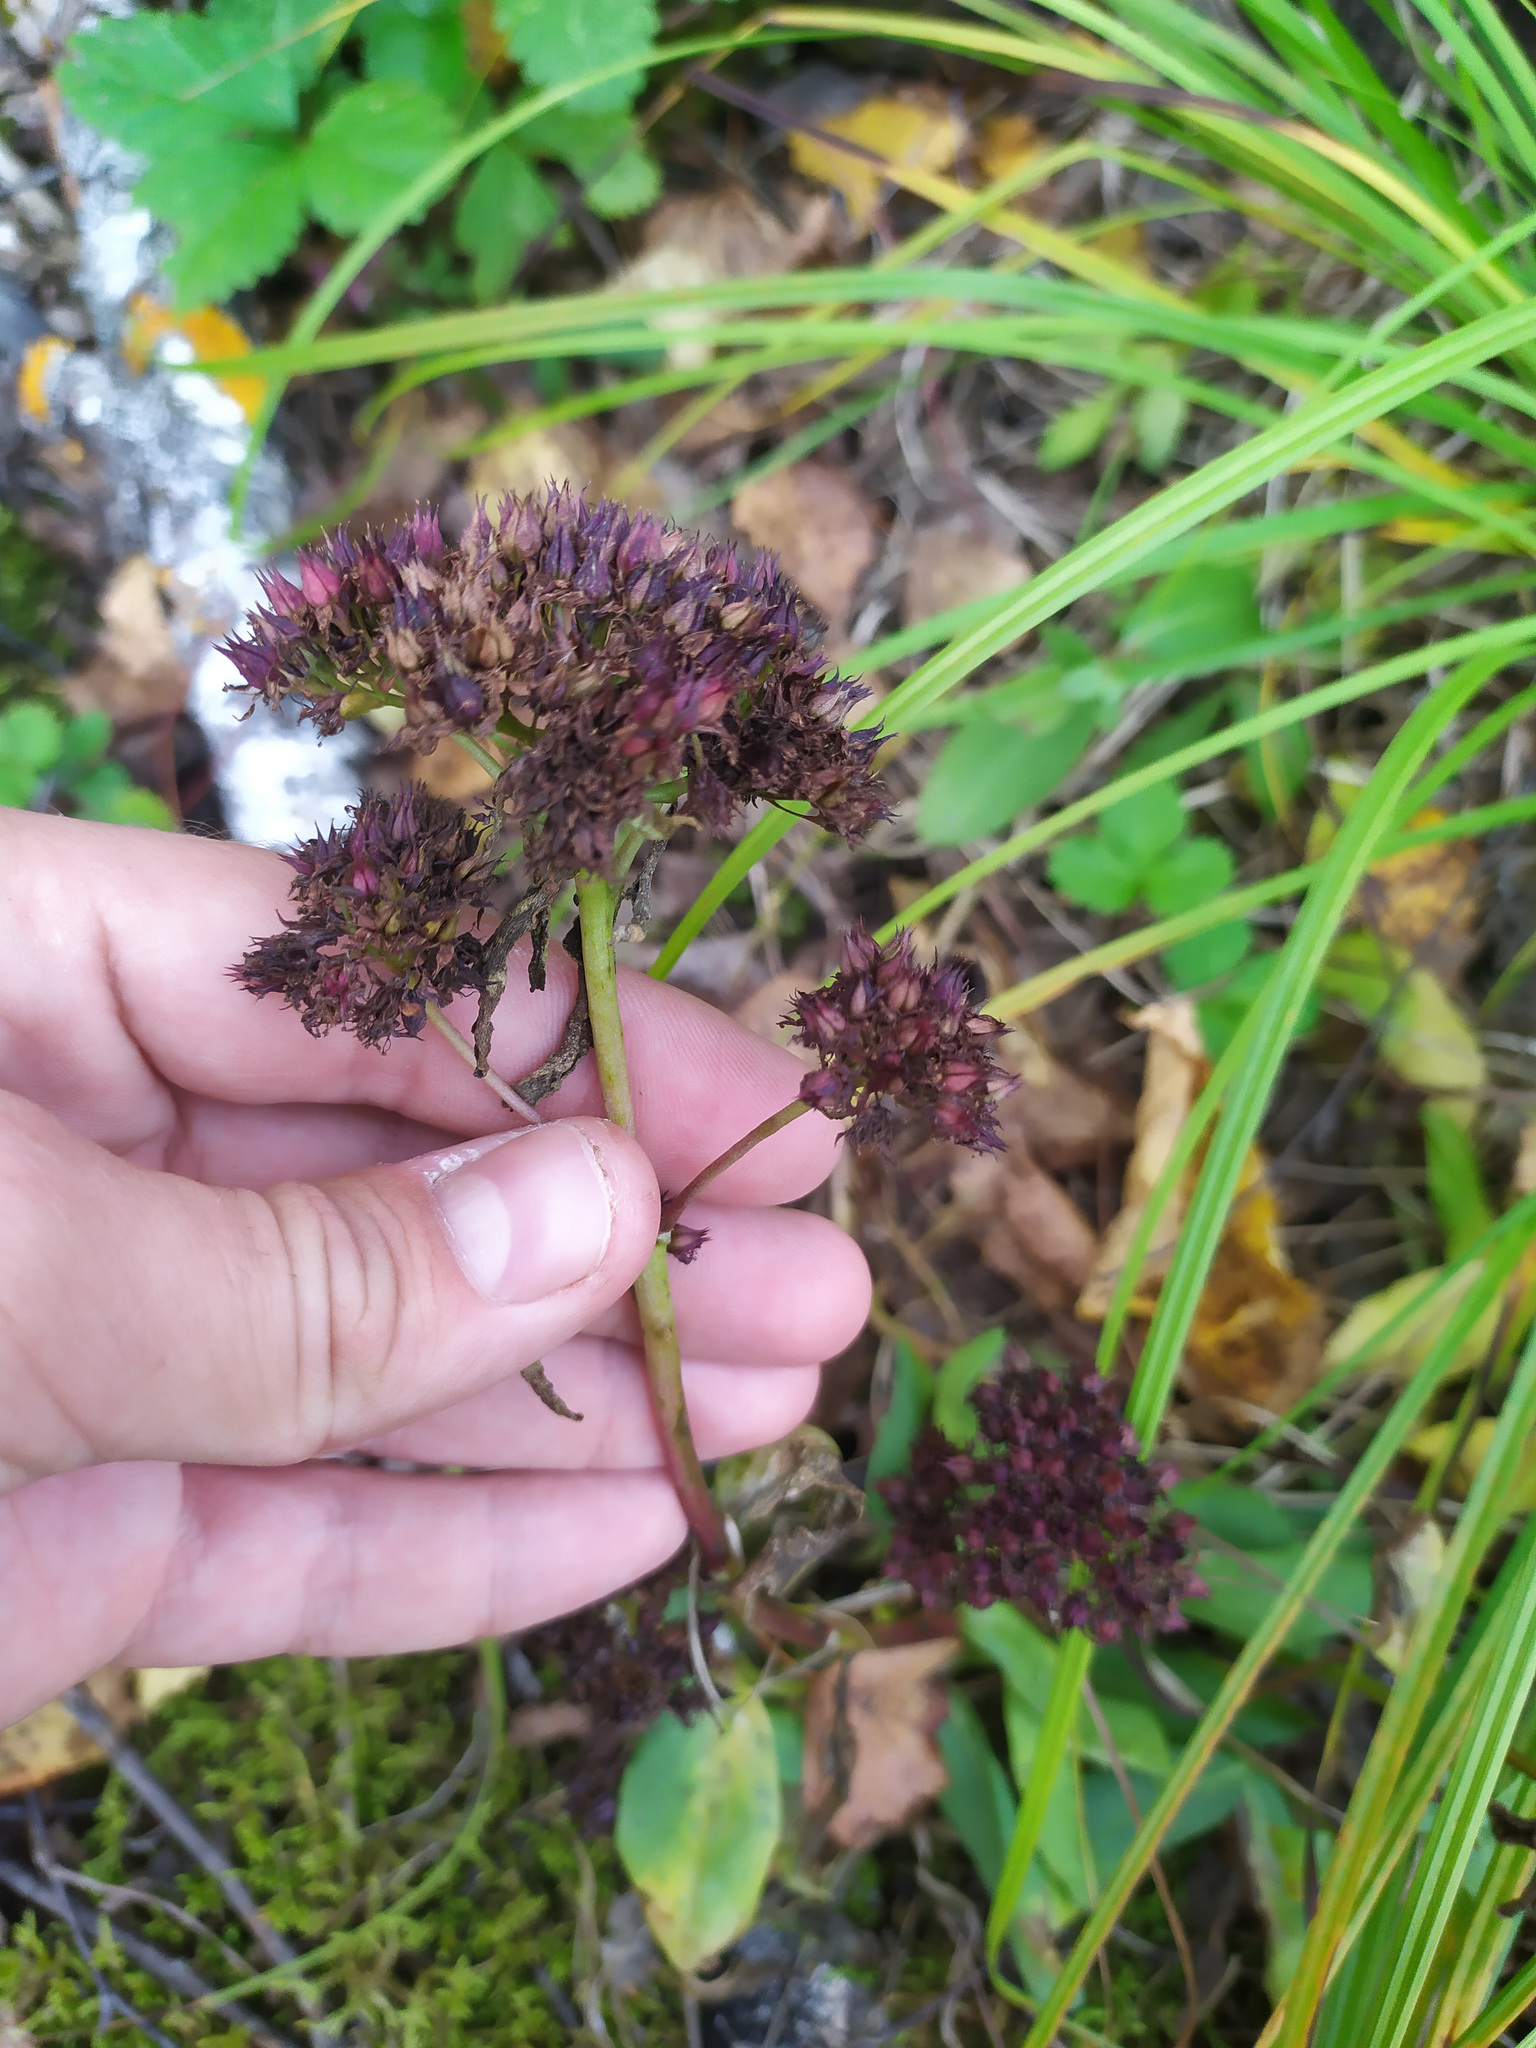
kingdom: Plantae
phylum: Tracheophyta
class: Magnoliopsida
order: Saxifragales
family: Crassulaceae
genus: Hylotelephium
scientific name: Hylotelephium telephium
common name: Live-forever
